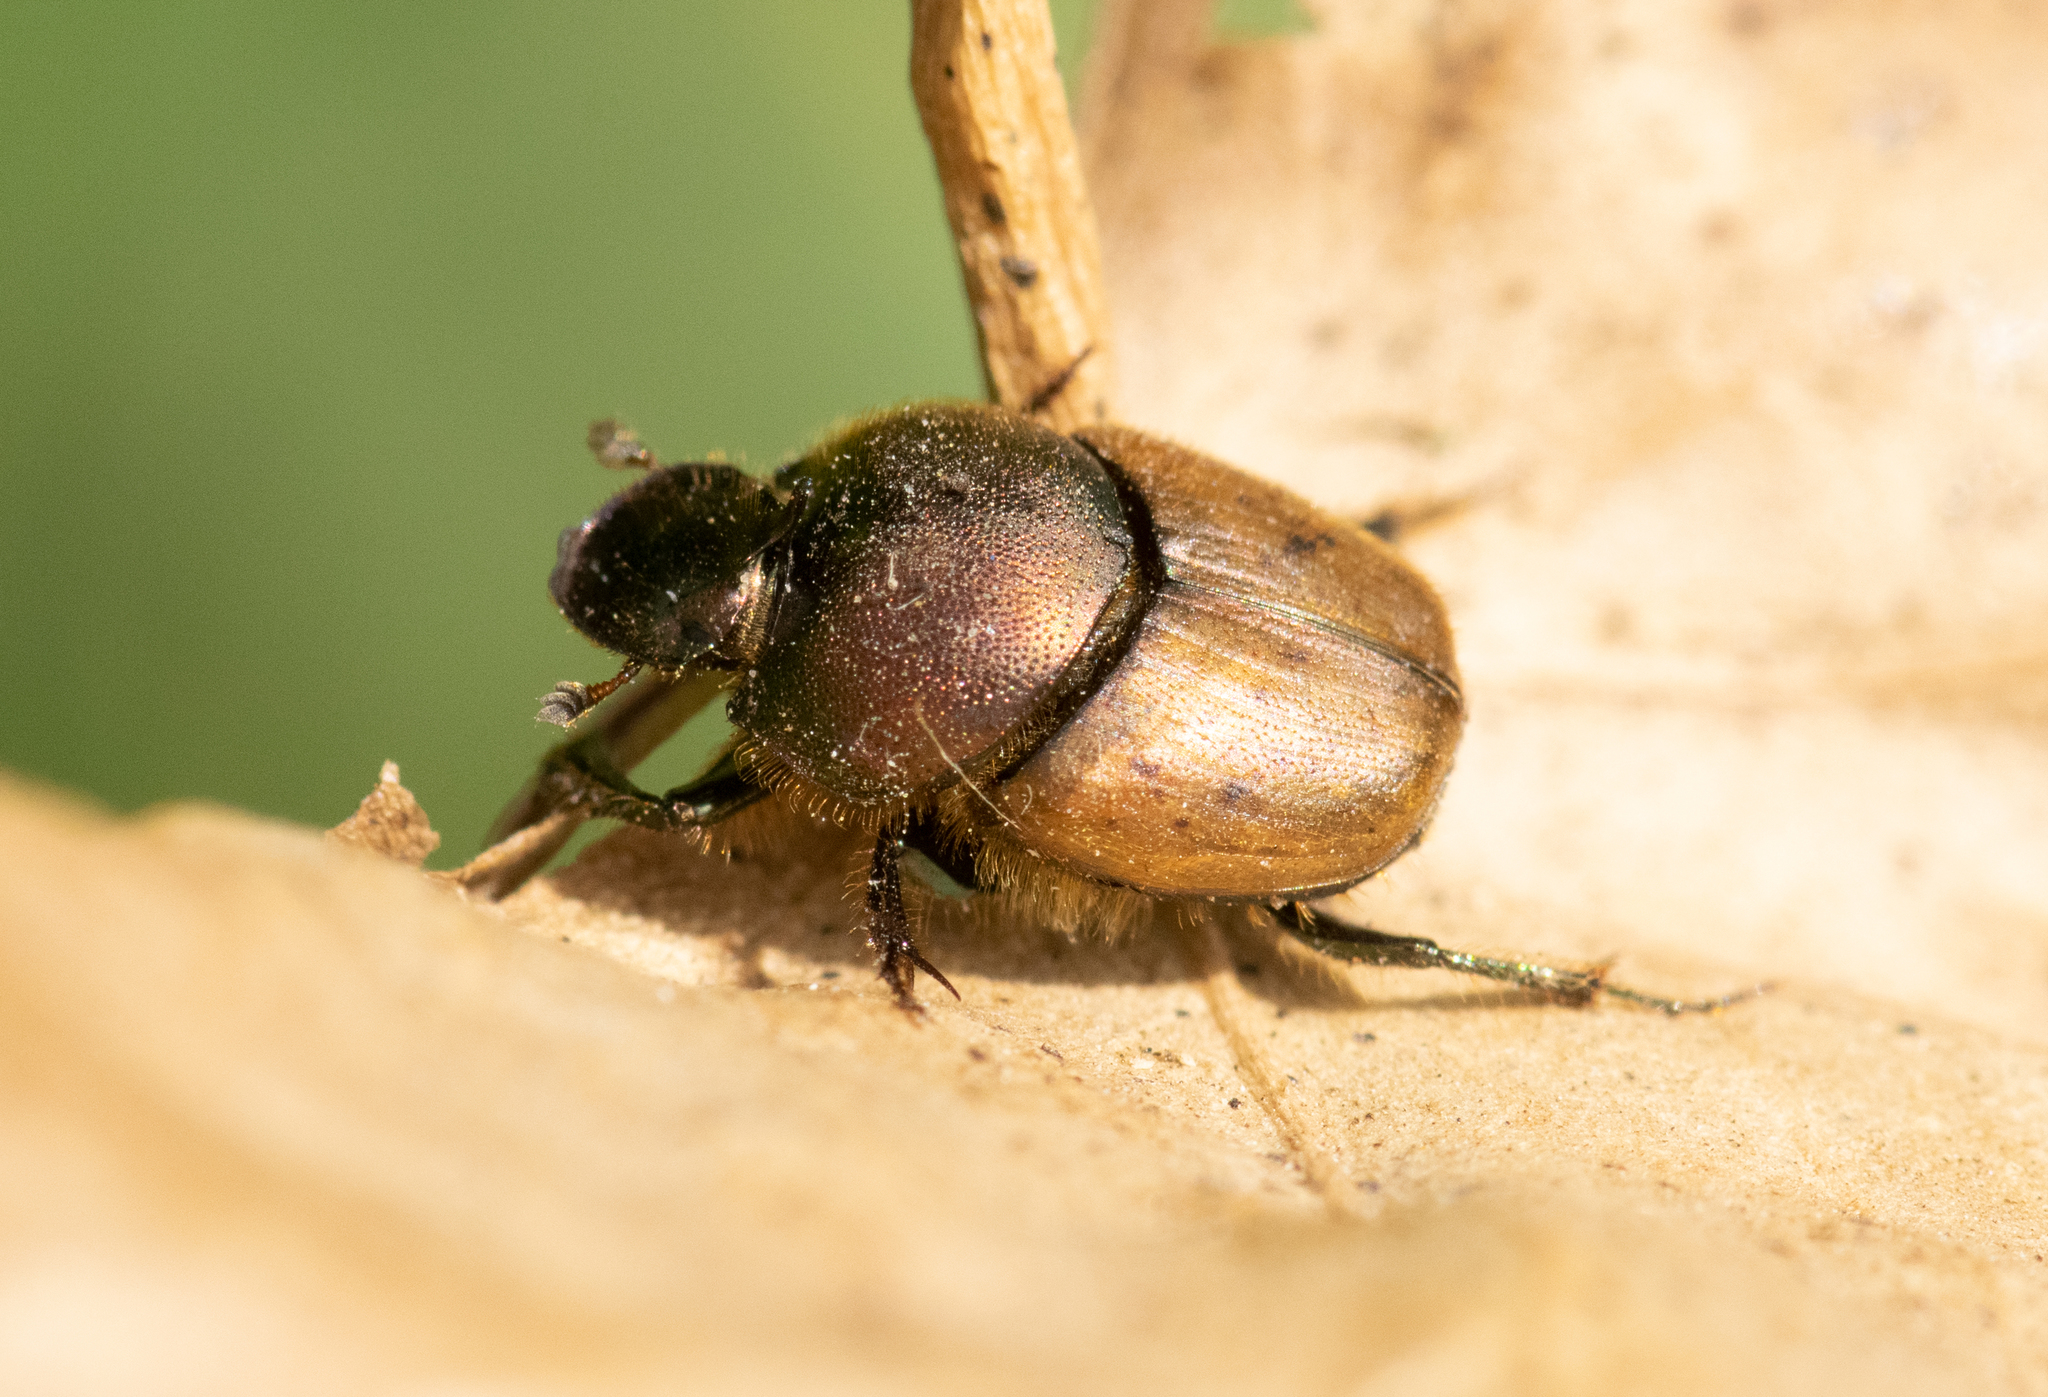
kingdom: Animalia
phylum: Arthropoda
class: Insecta
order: Coleoptera
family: Scarabaeidae
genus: Onthophagus
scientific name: Onthophagus coenobita
